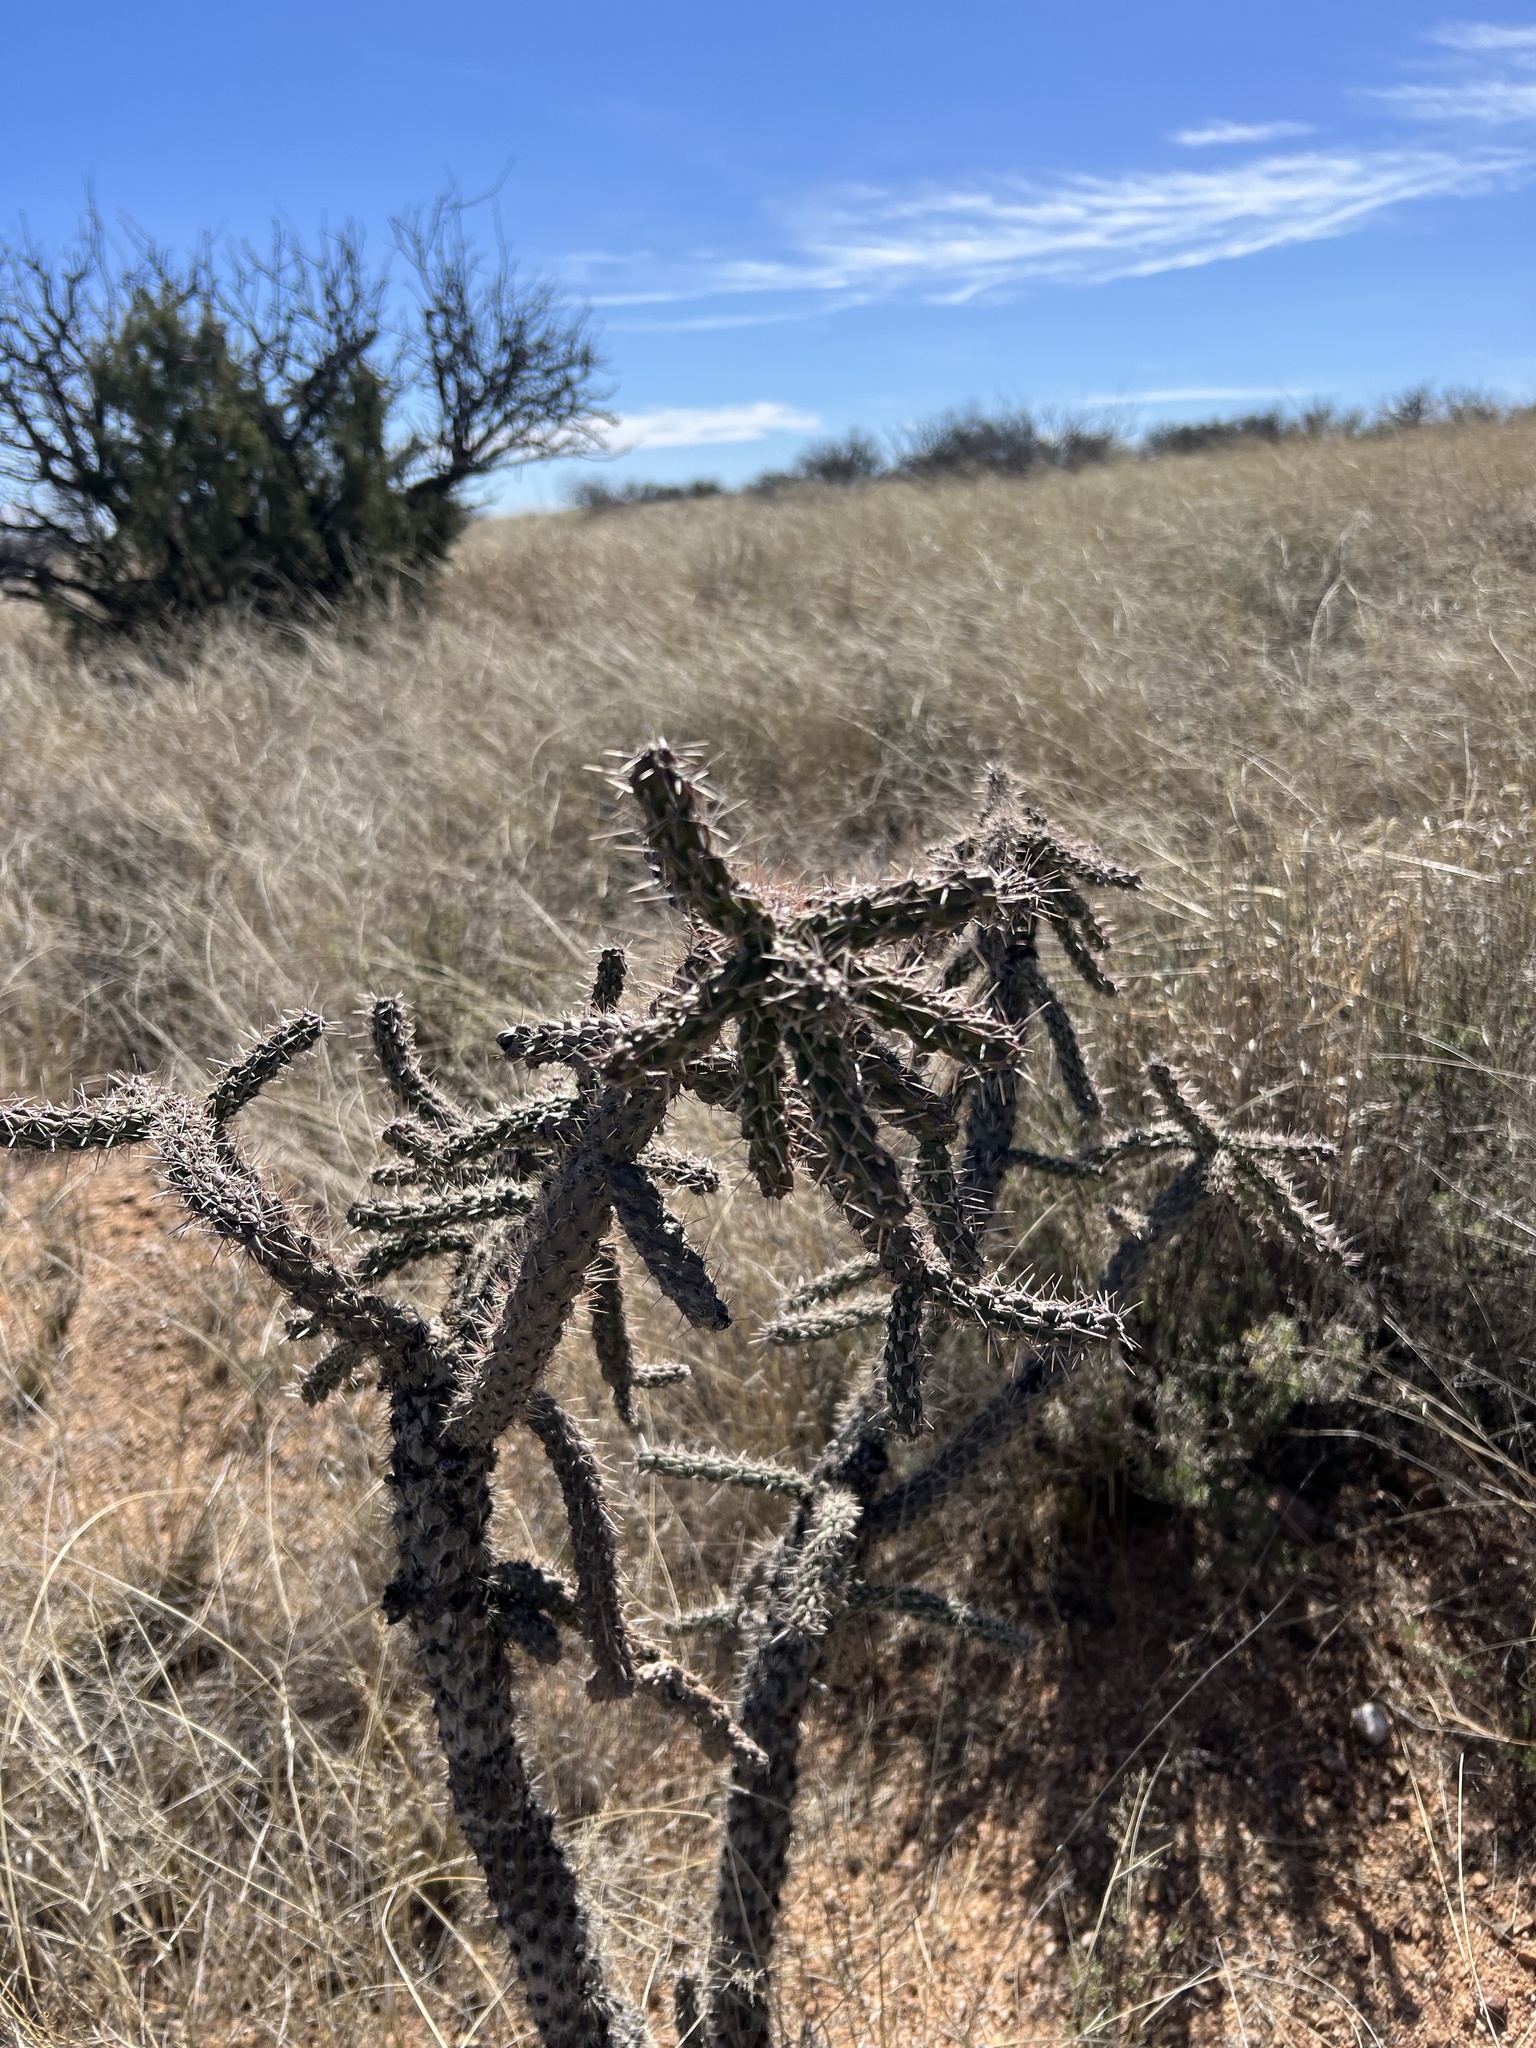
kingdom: Plantae
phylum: Tracheophyta
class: Magnoliopsida
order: Caryophyllales
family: Cactaceae
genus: Cylindropuntia
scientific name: Cylindropuntia imbricata
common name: Candelabrum cactus
